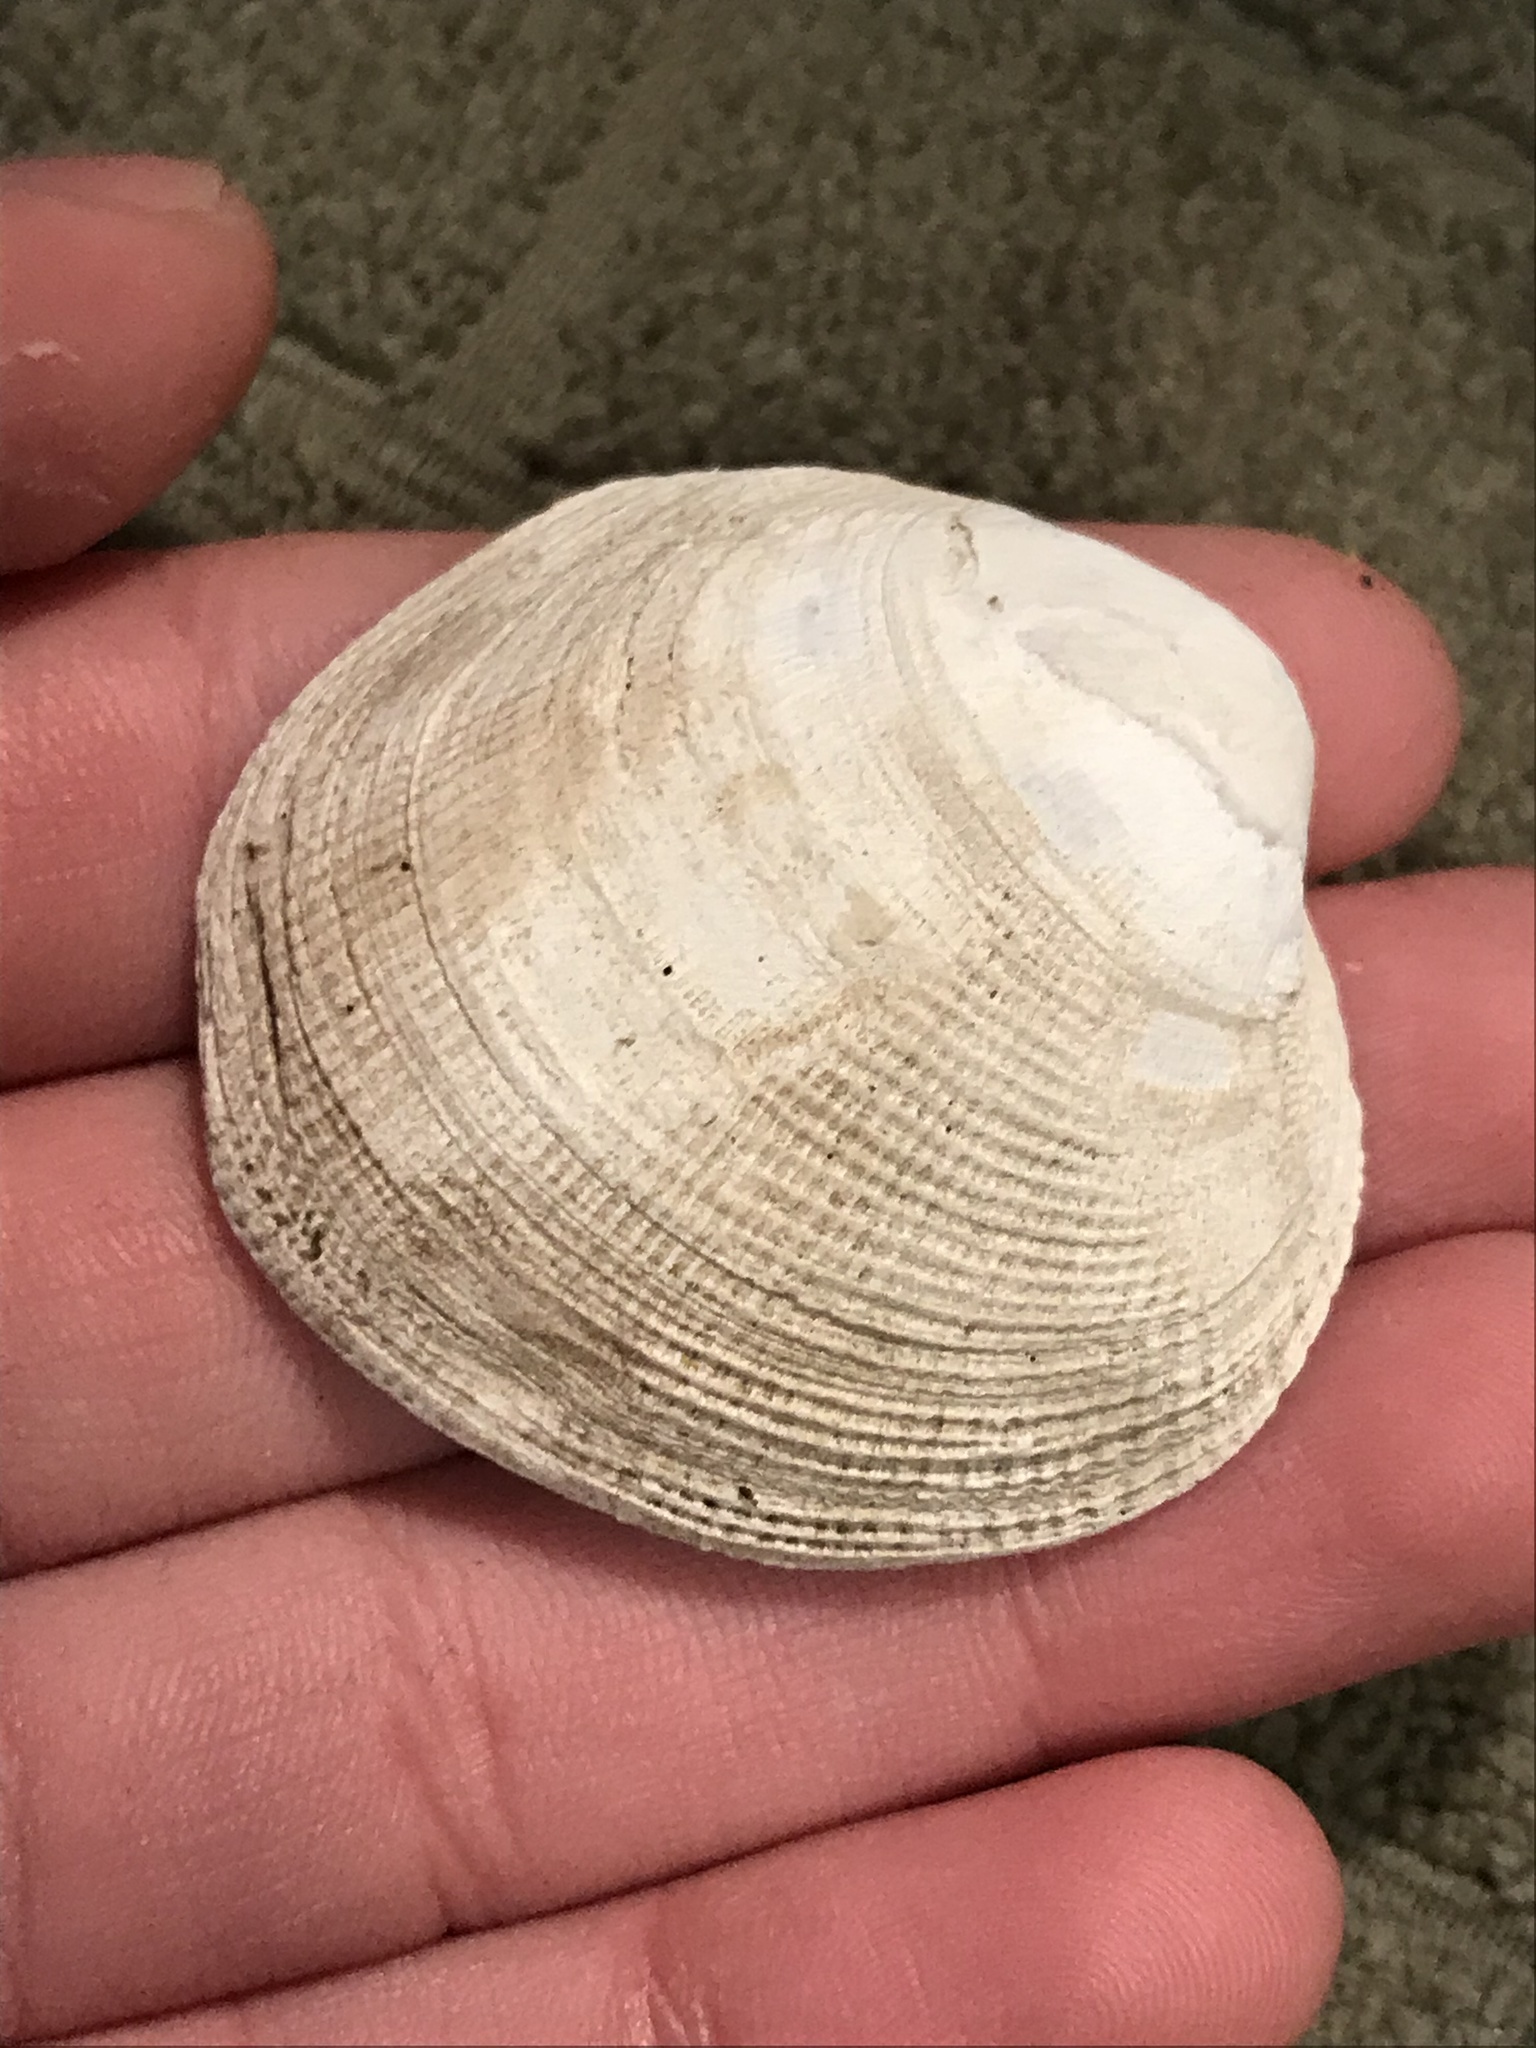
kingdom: Animalia
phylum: Mollusca
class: Bivalvia
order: Venerida
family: Veneridae
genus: Leukoma
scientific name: Leukoma staminea
